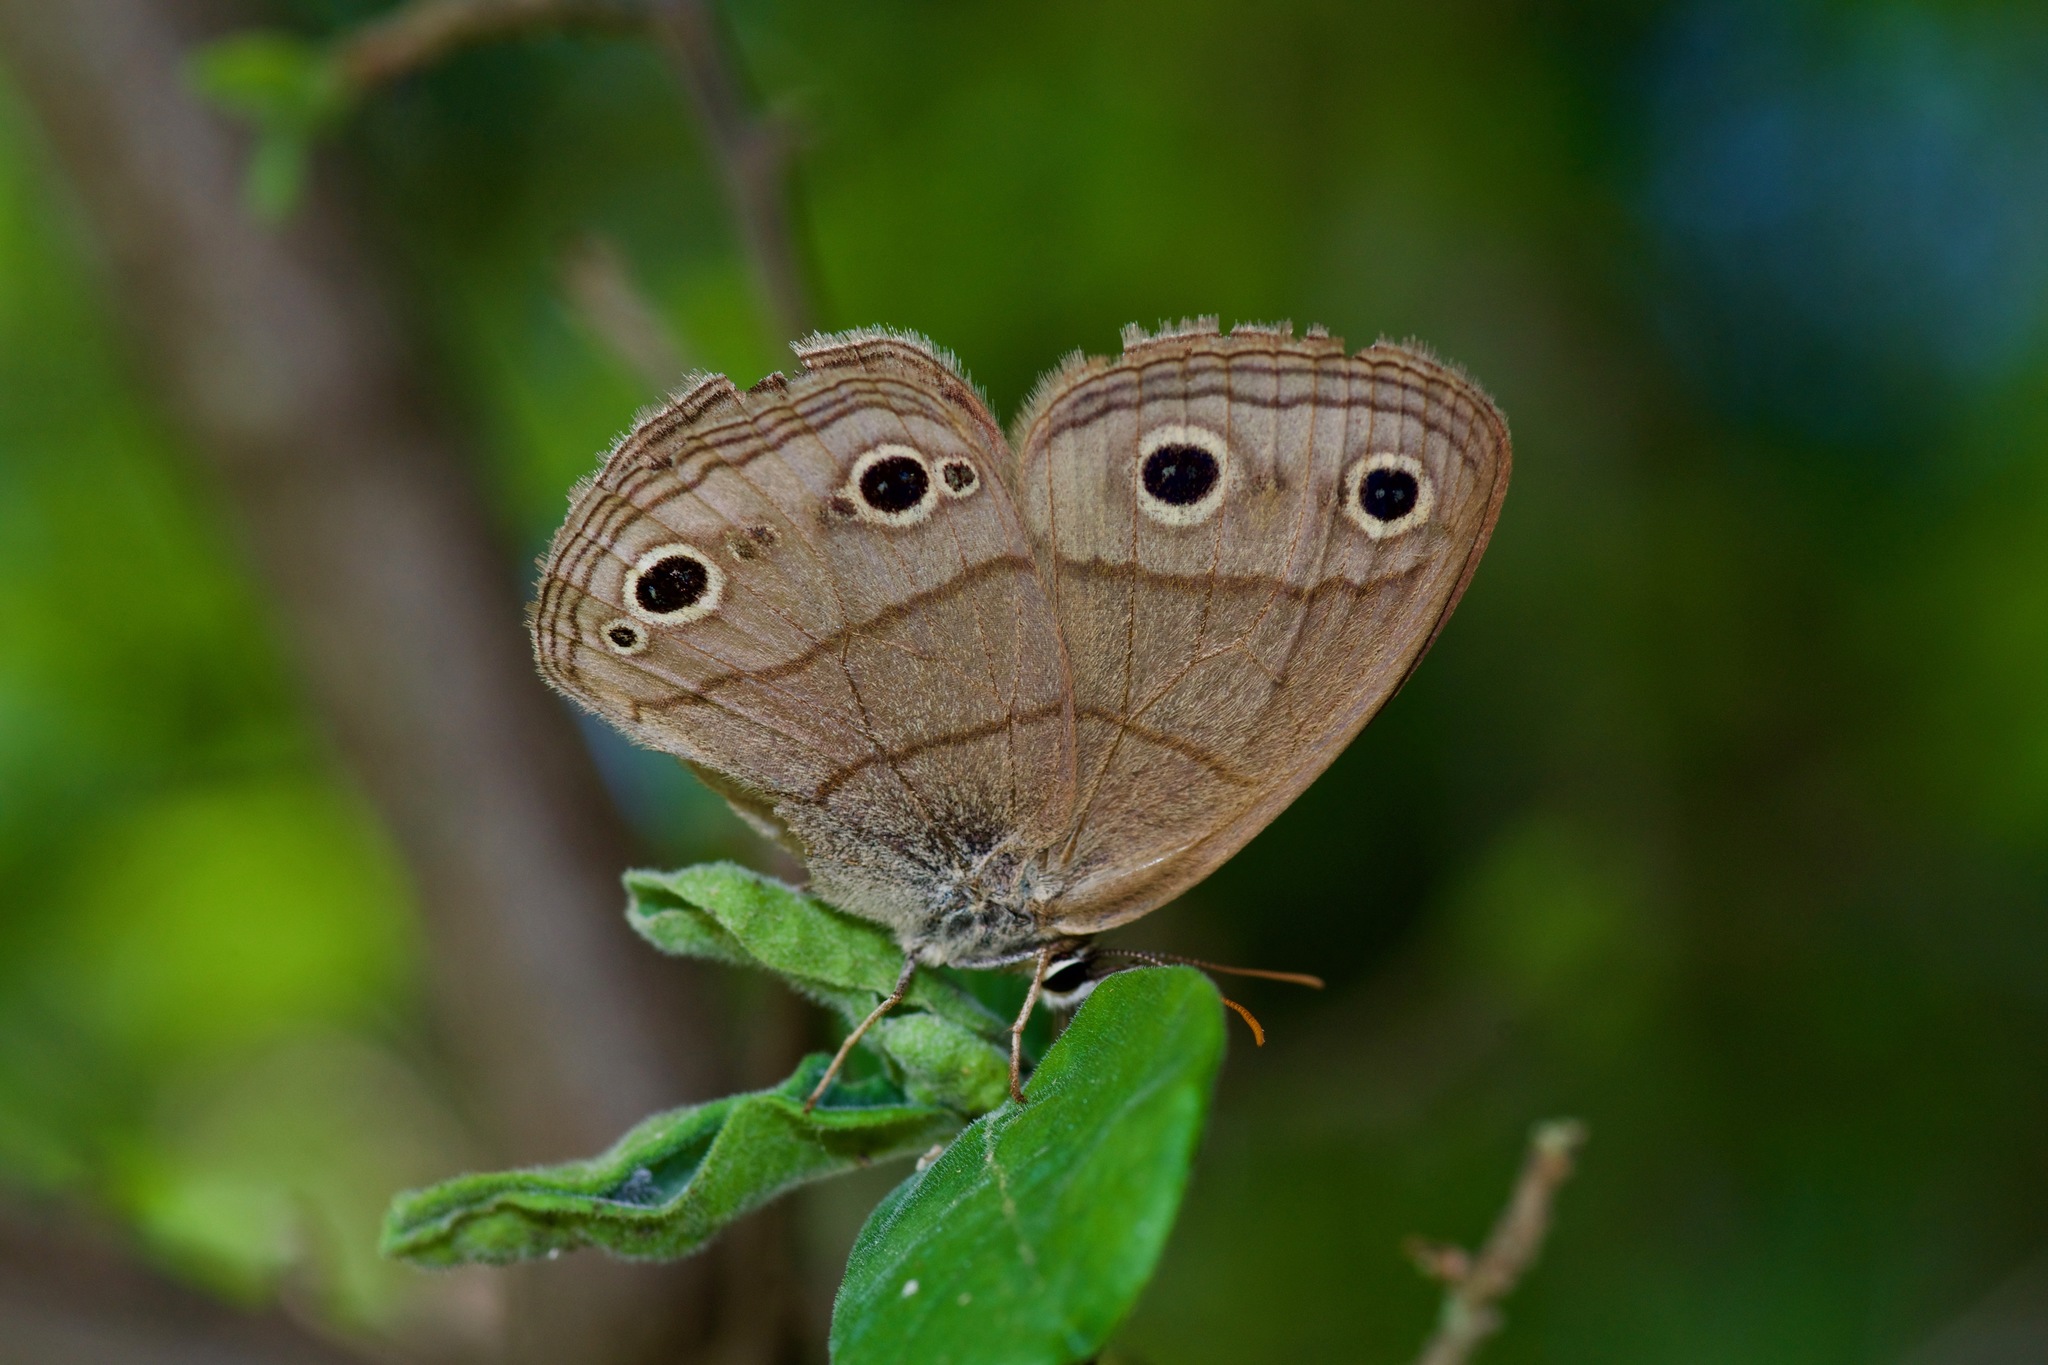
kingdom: Animalia
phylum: Arthropoda
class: Insecta
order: Lepidoptera
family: Nymphalidae
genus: Euptychia
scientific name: Euptychia cymela
